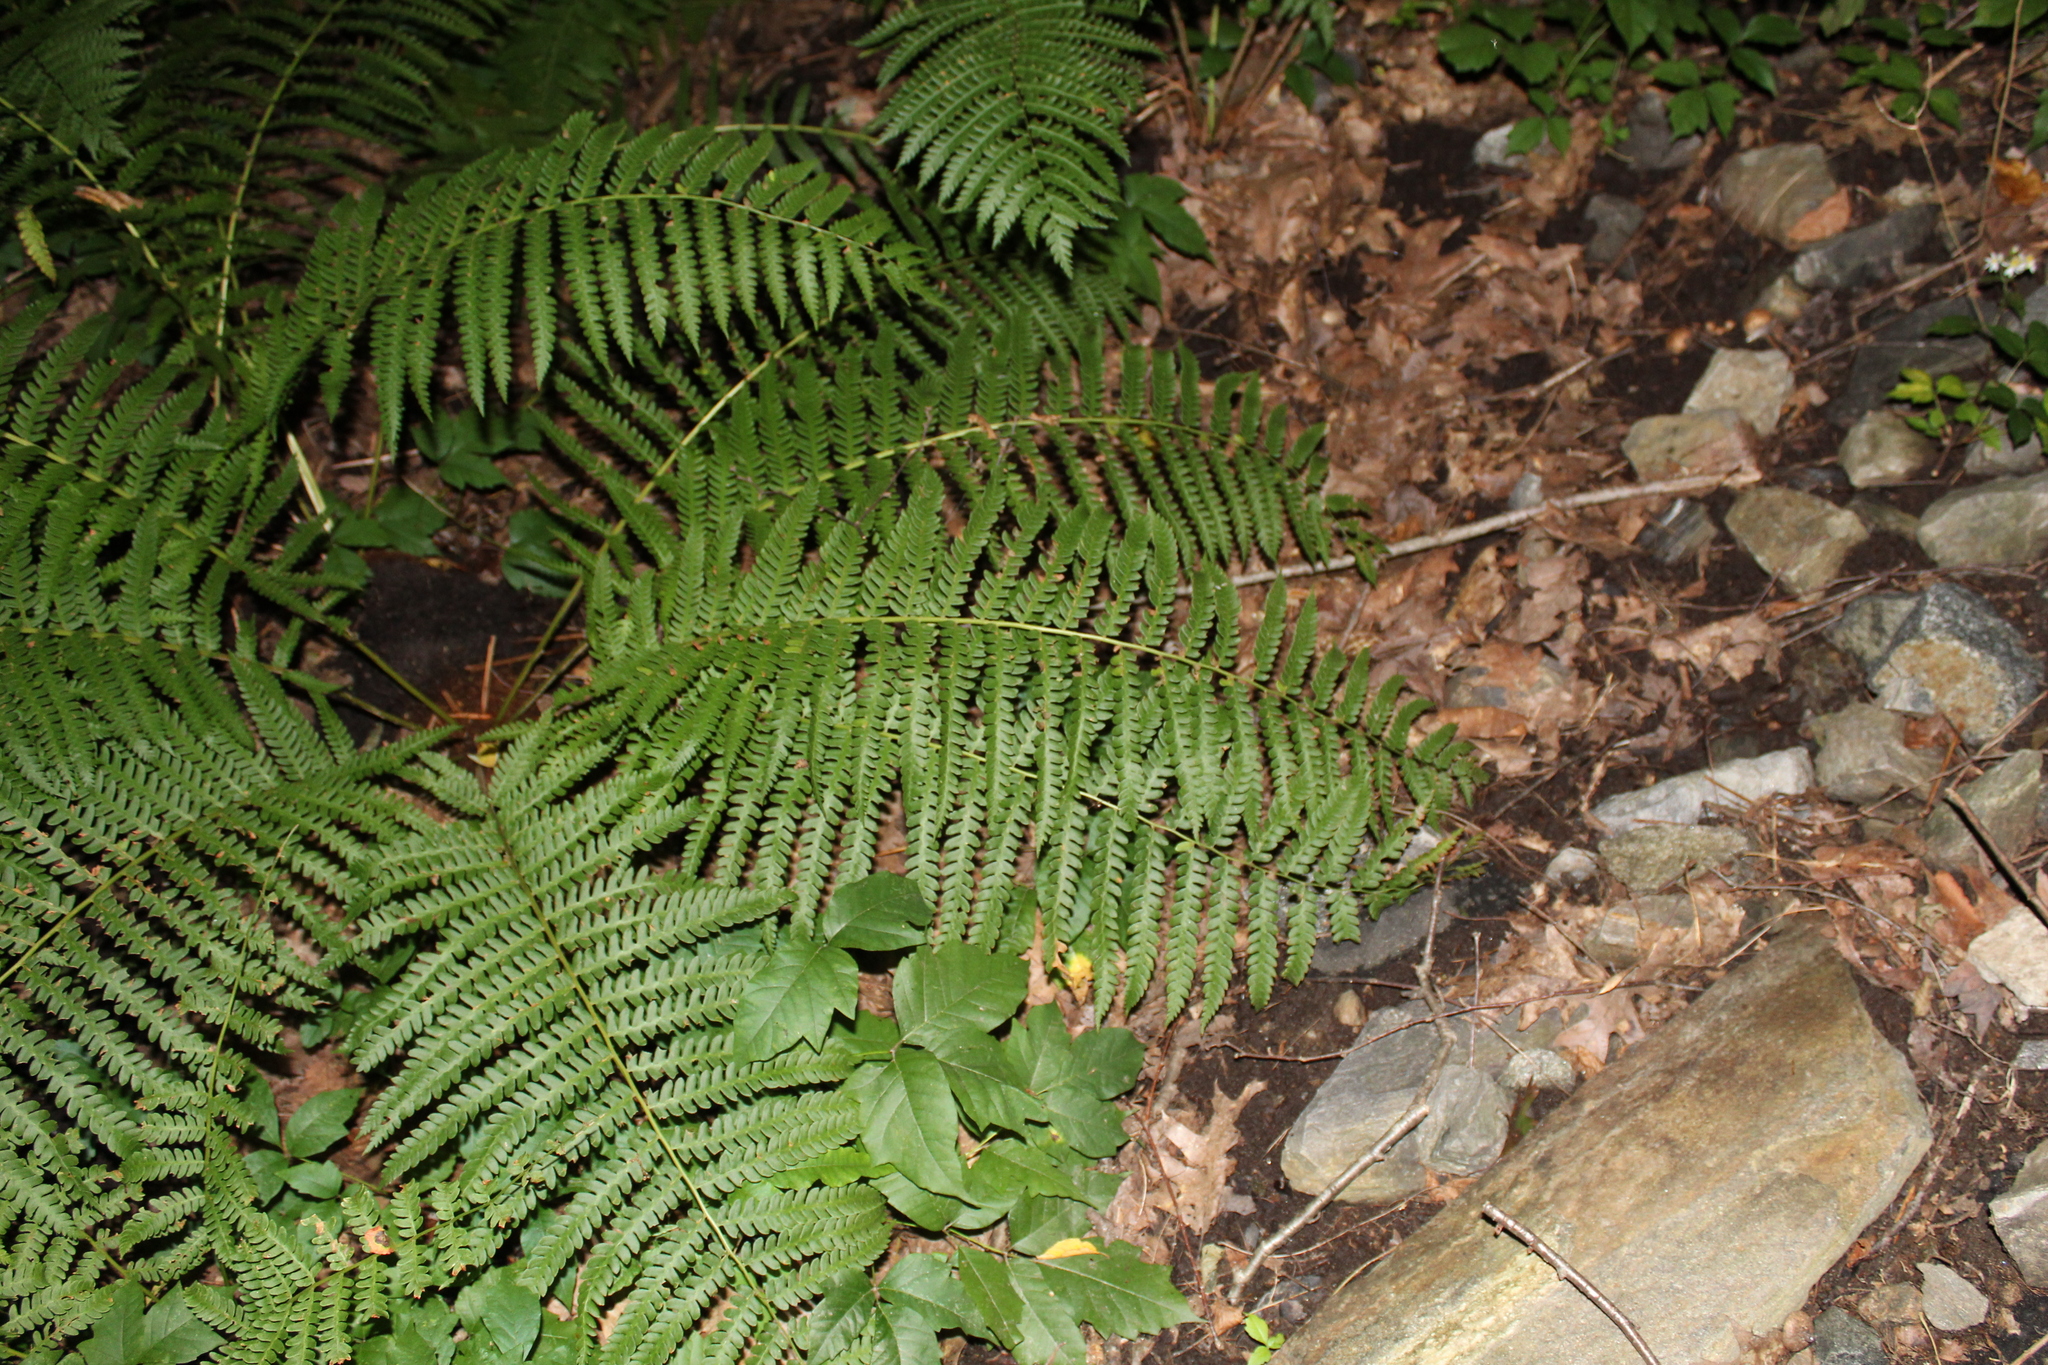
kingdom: Plantae
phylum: Tracheophyta
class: Polypodiopsida
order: Osmundales
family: Osmundaceae
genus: Osmundastrum
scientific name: Osmundastrum cinnamomeum
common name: Cinnamon fern
